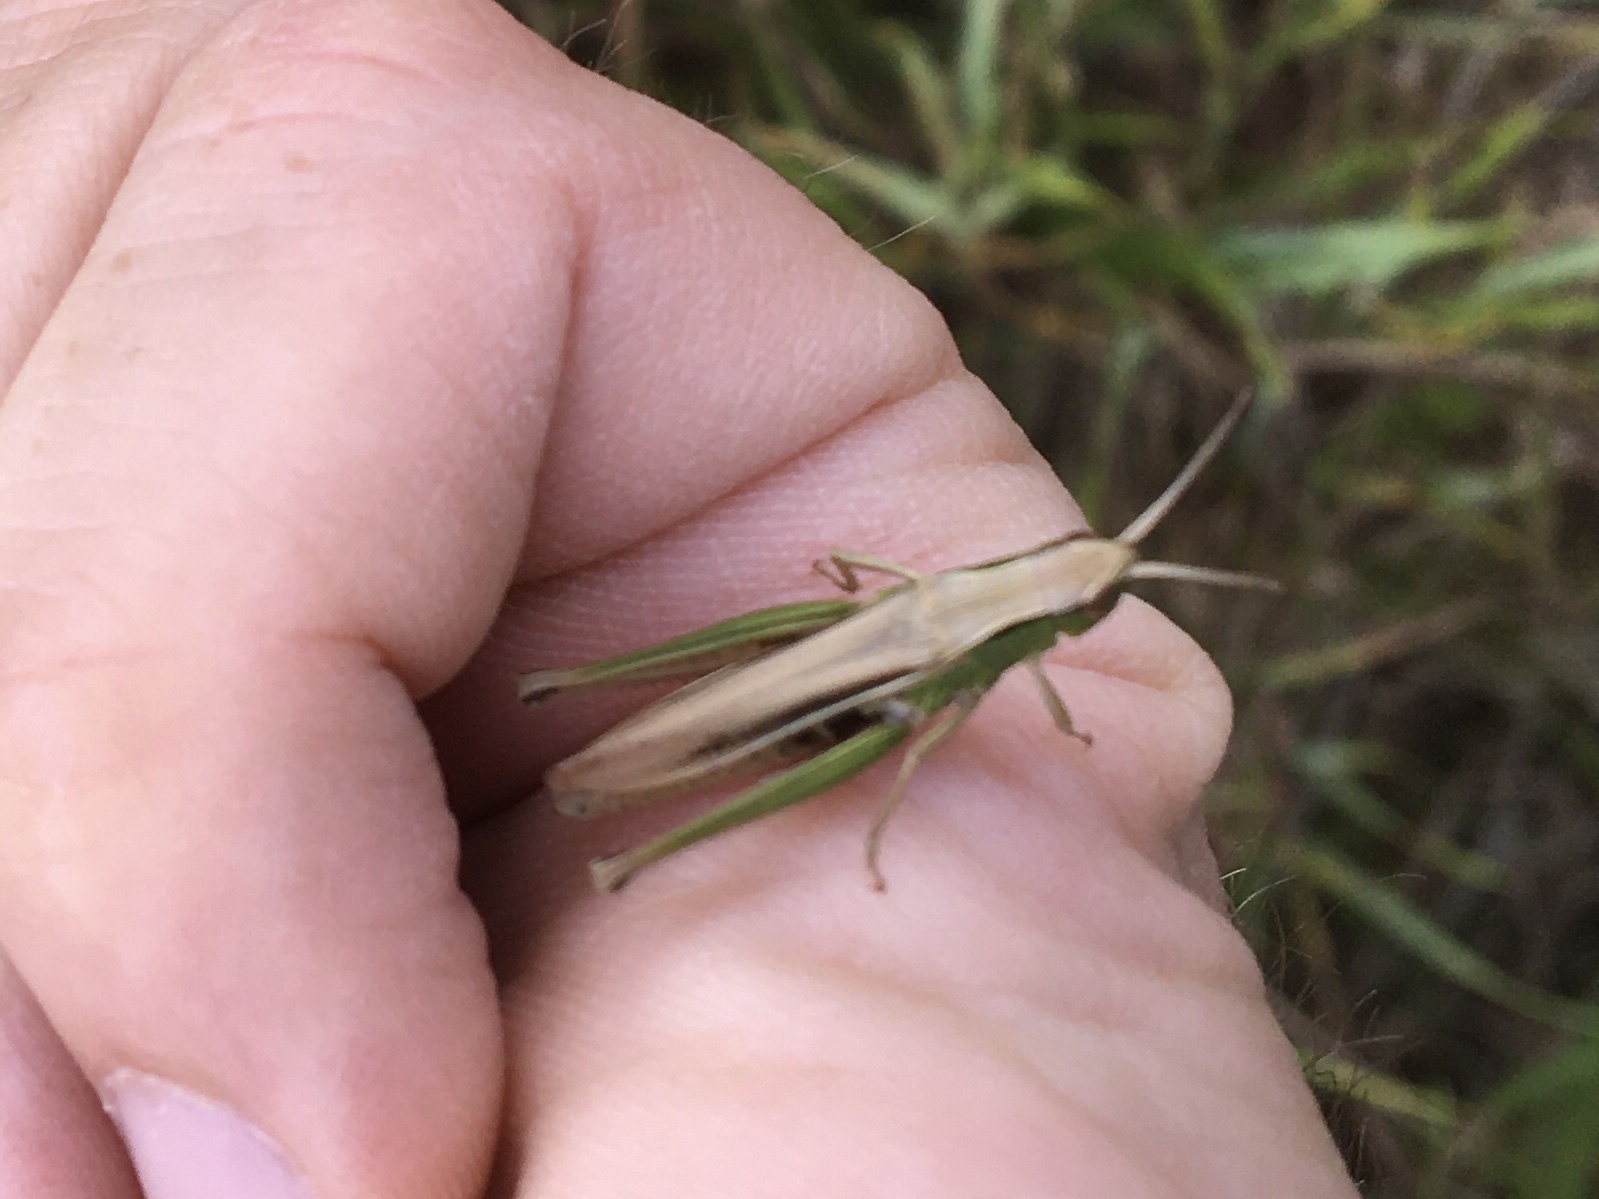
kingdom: Animalia
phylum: Arthropoda
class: Insecta
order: Orthoptera
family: Acrididae
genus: Chorthippus
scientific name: Chorthippus albomarginatus
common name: Lesser marsh grasshopper
